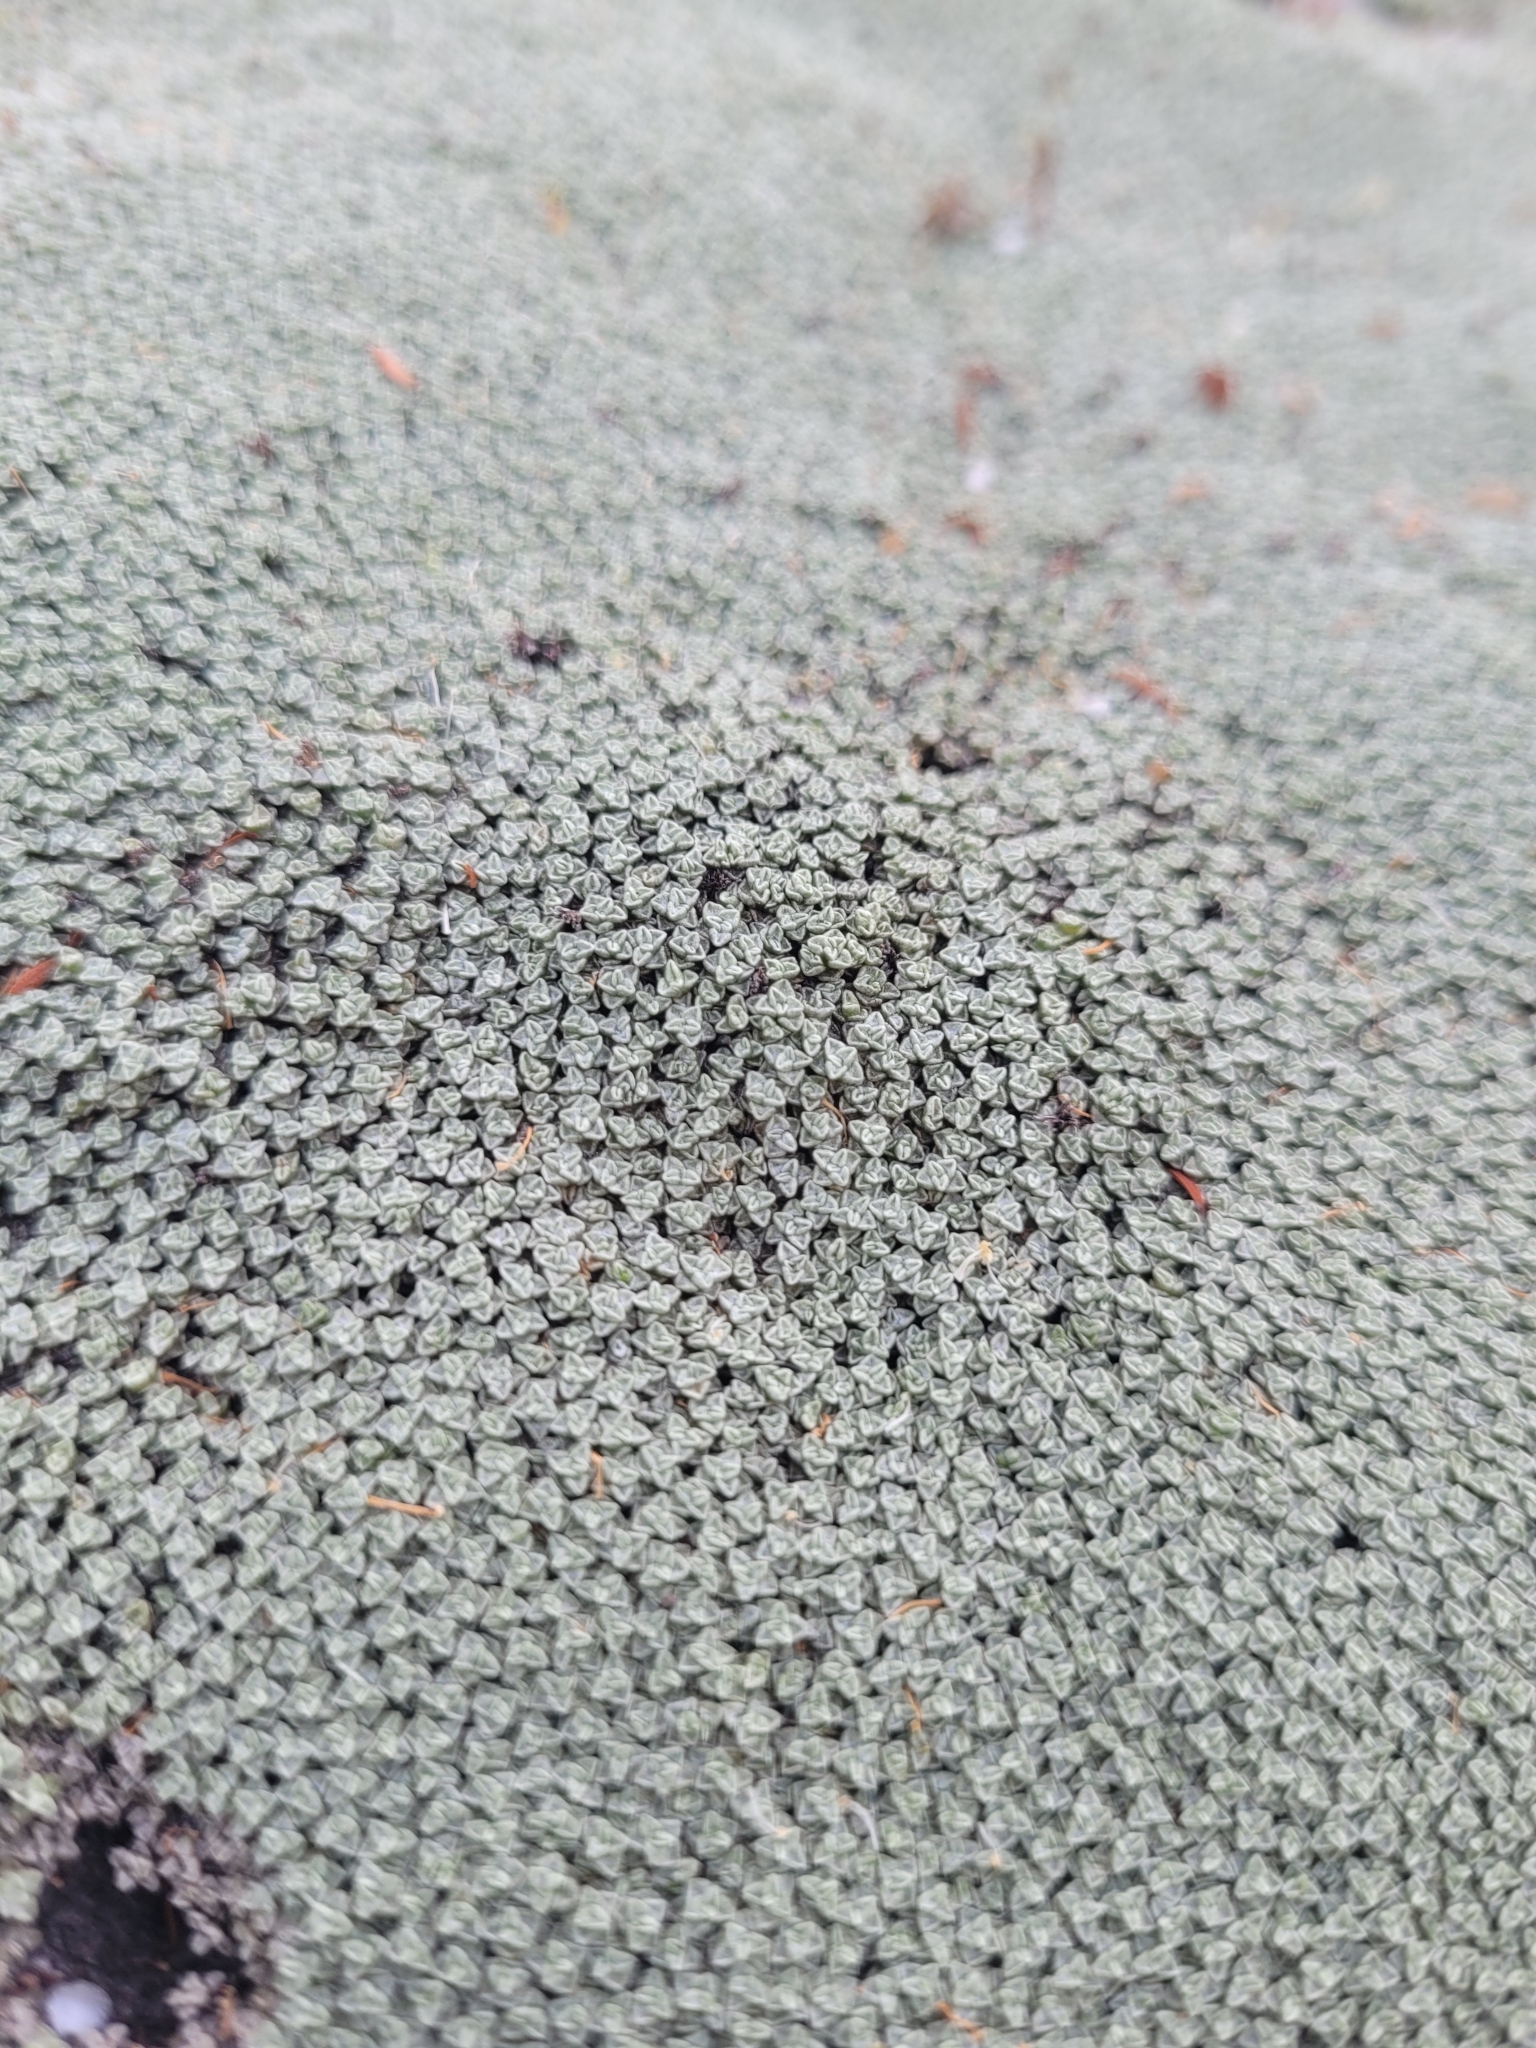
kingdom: Plantae
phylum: Tracheophyta
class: Magnoliopsida
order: Asterales
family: Asteraceae
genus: Raoulia
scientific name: Raoulia australis
